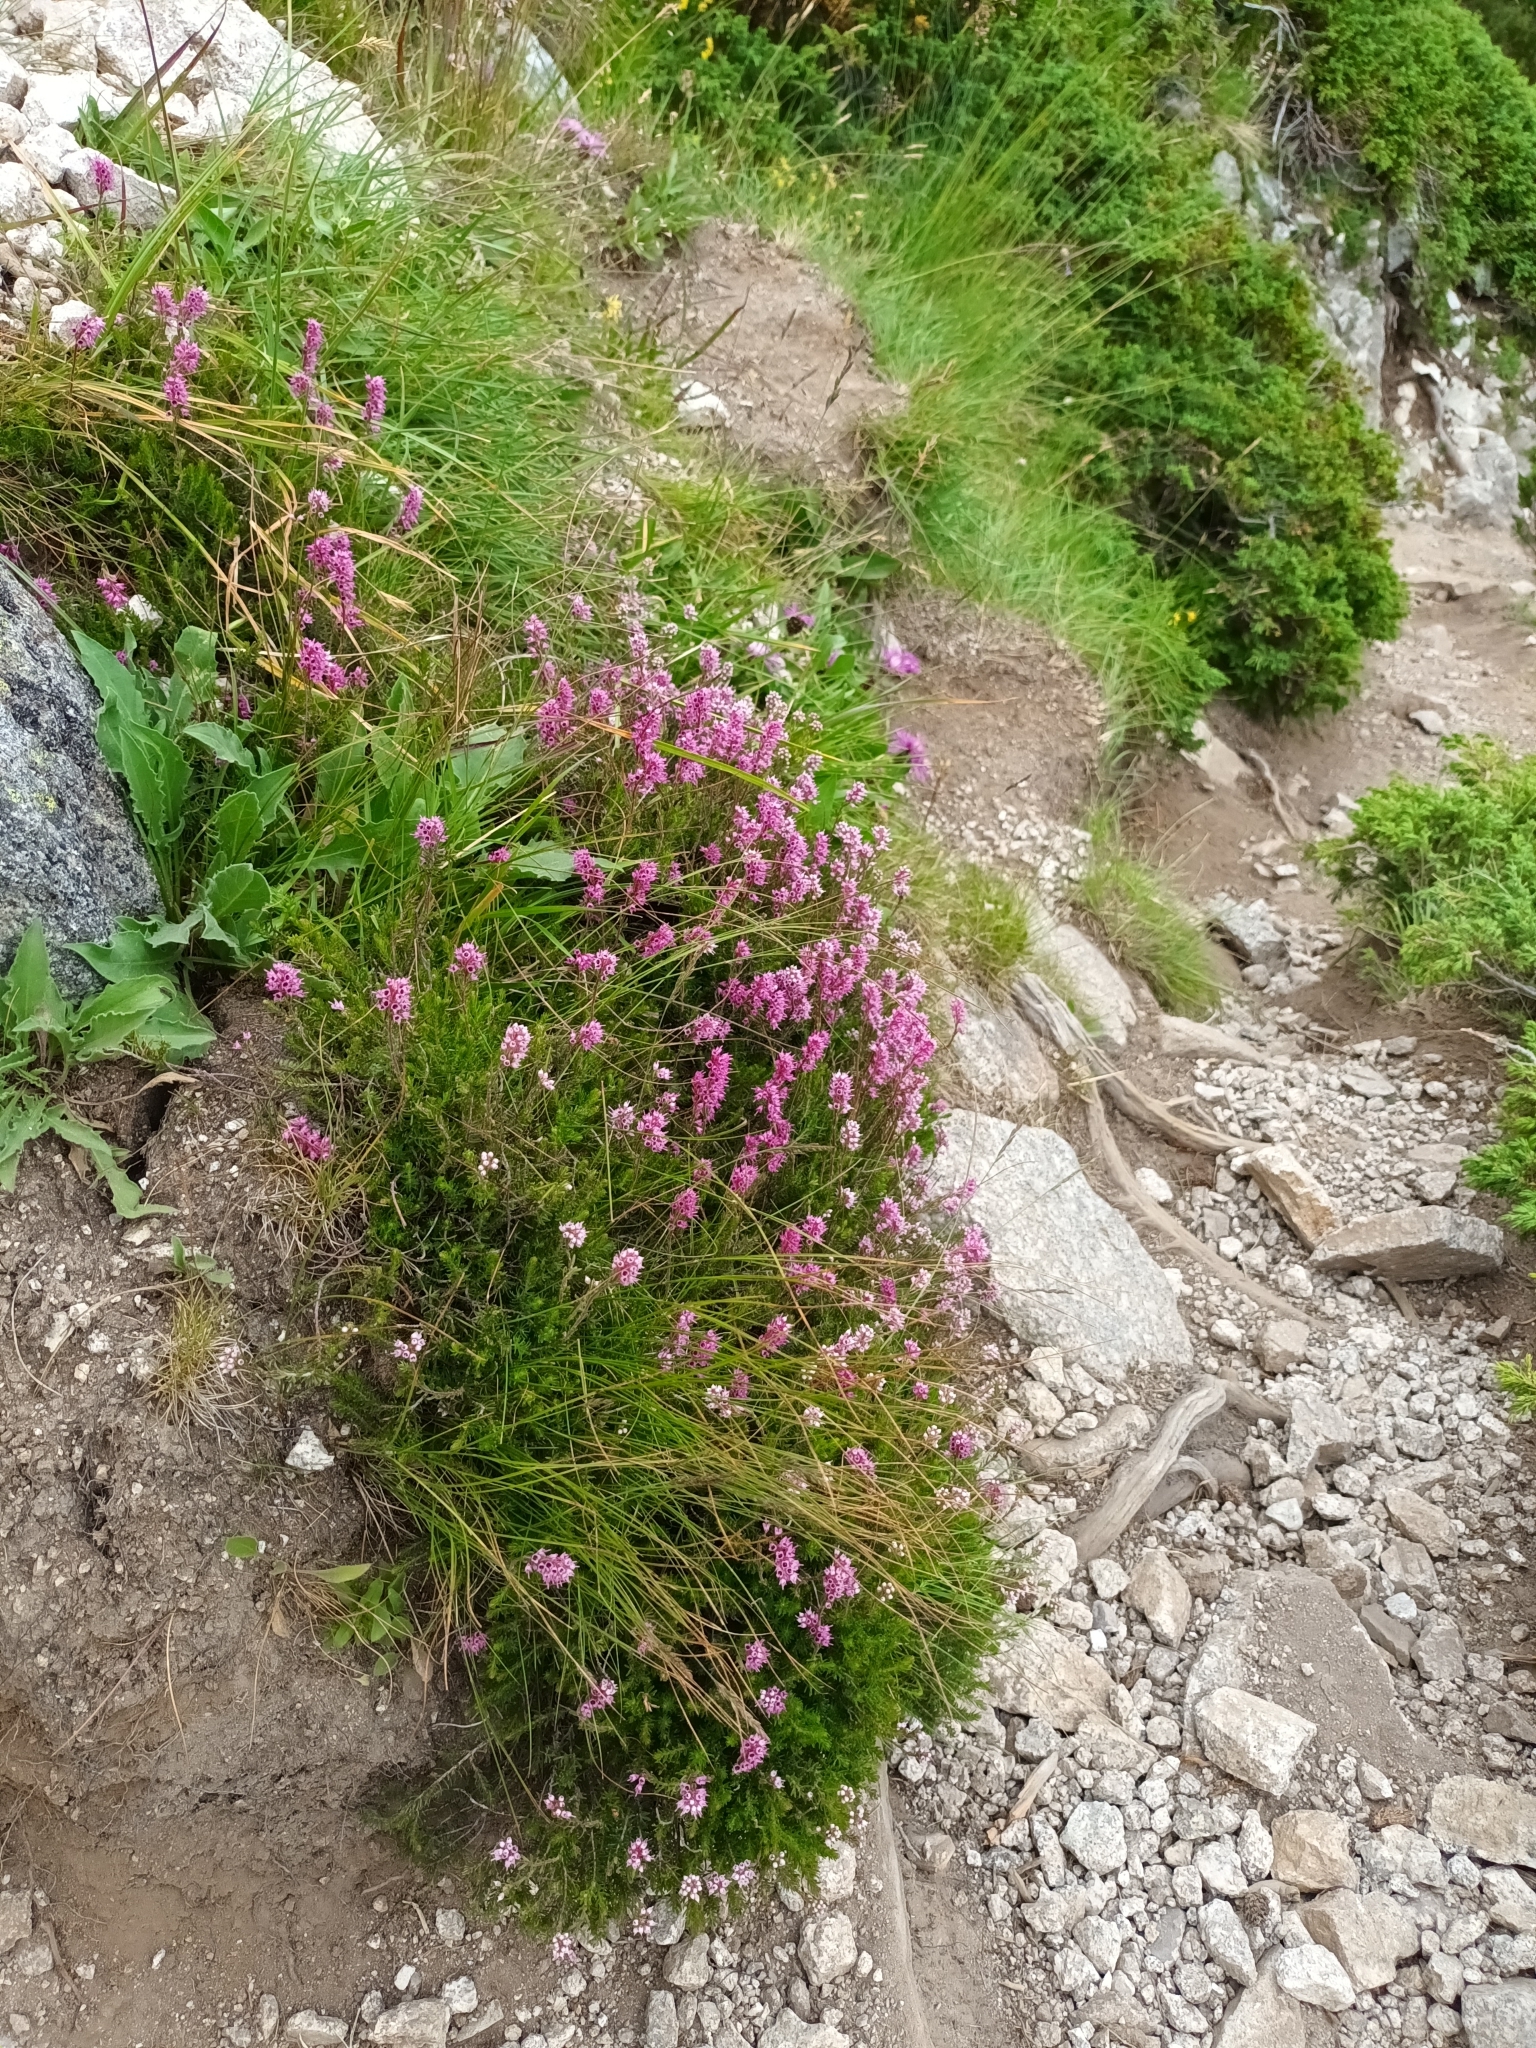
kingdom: Plantae
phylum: Tracheophyta
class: Magnoliopsida
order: Ericales
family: Ericaceae
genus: Erica
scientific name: Erica spiculifolia
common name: Spike heath
